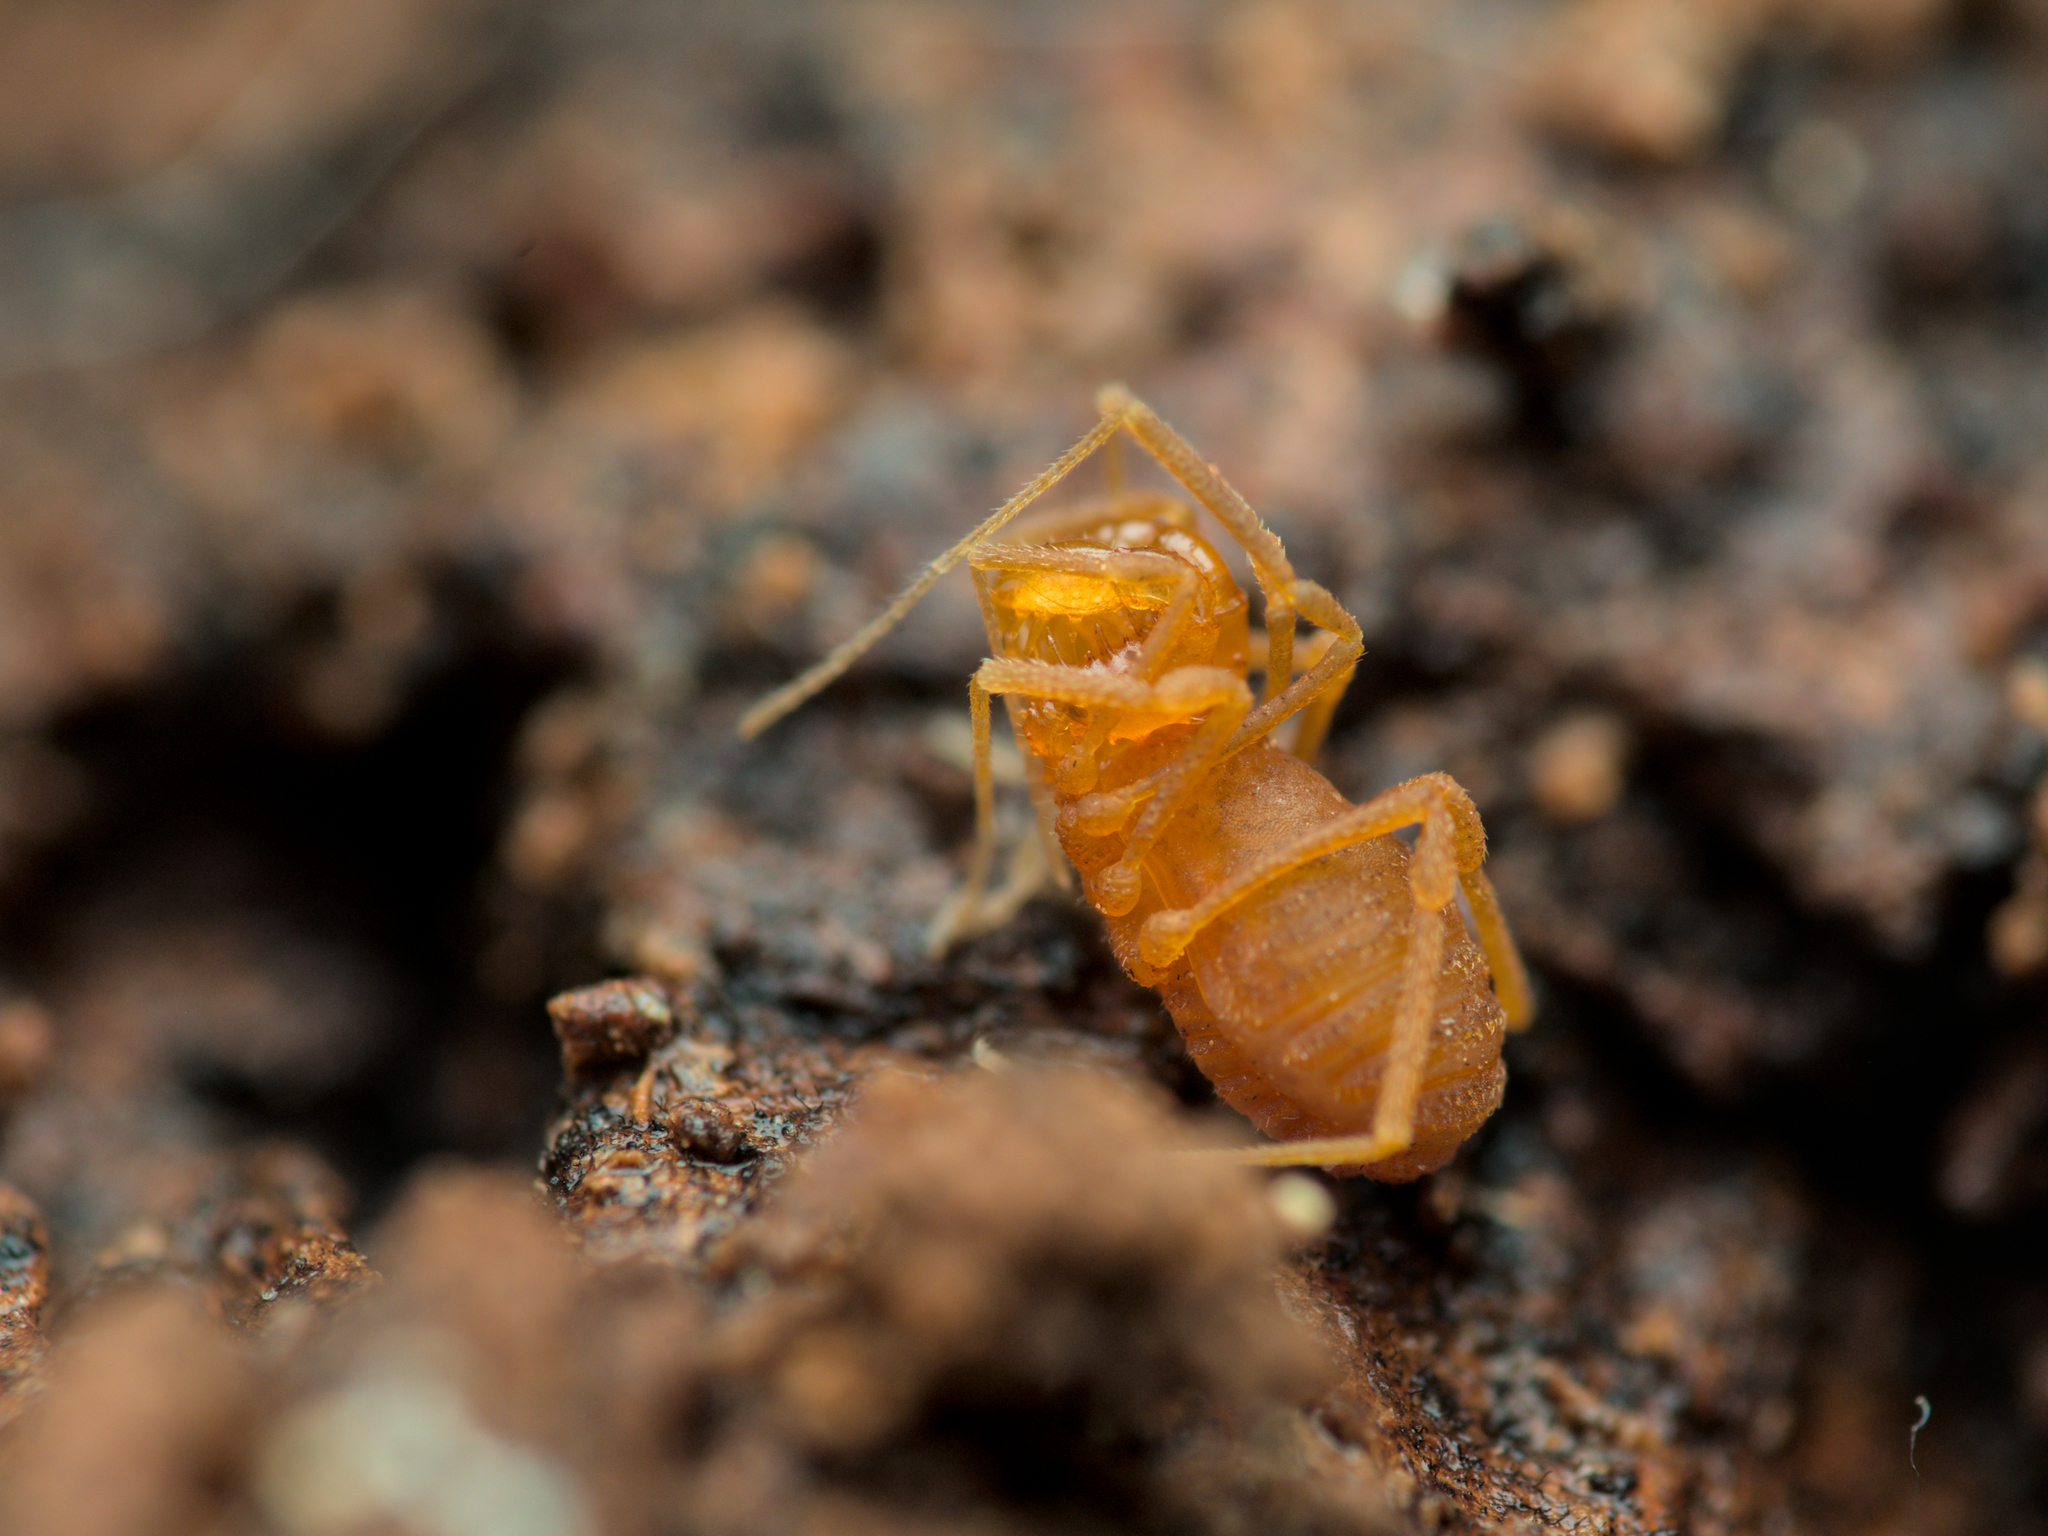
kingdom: Animalia
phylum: Arthropoda
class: Arachnida
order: Opiliones
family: Cladonychiidae
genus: Holoscotolemon
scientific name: Holoscotolemon querilhaci
